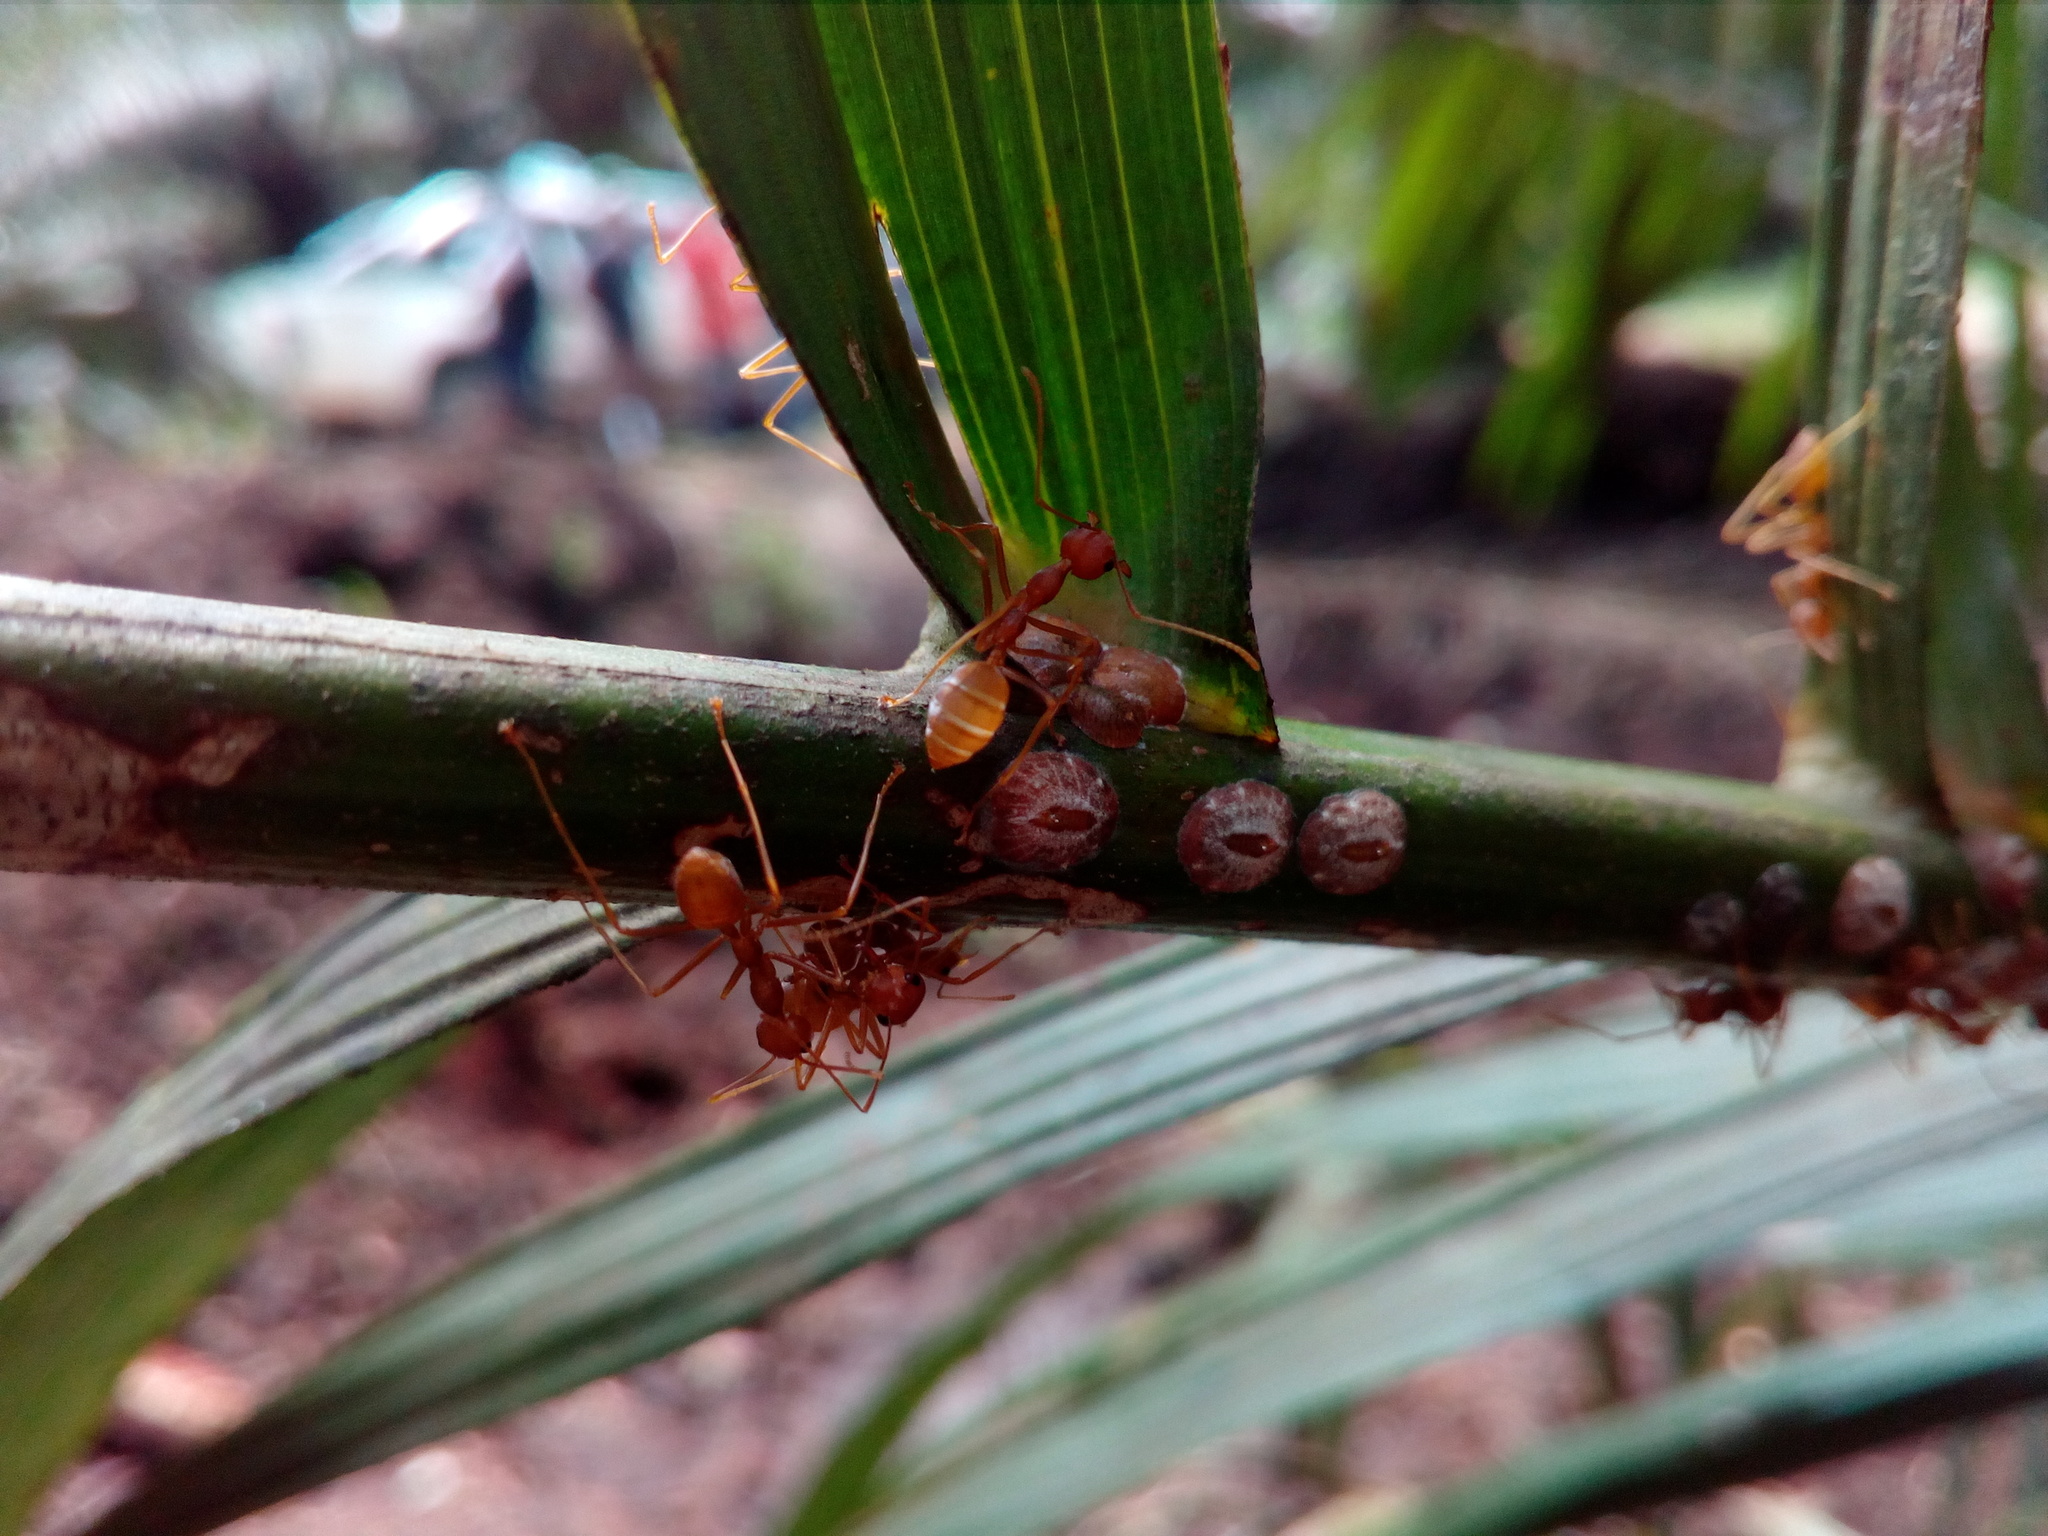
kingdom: Animalia
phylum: Arthropoda
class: Insecta
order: Hymenoptera
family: Formicidae
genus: Oecophylla
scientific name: Oecophylla smaragdina
